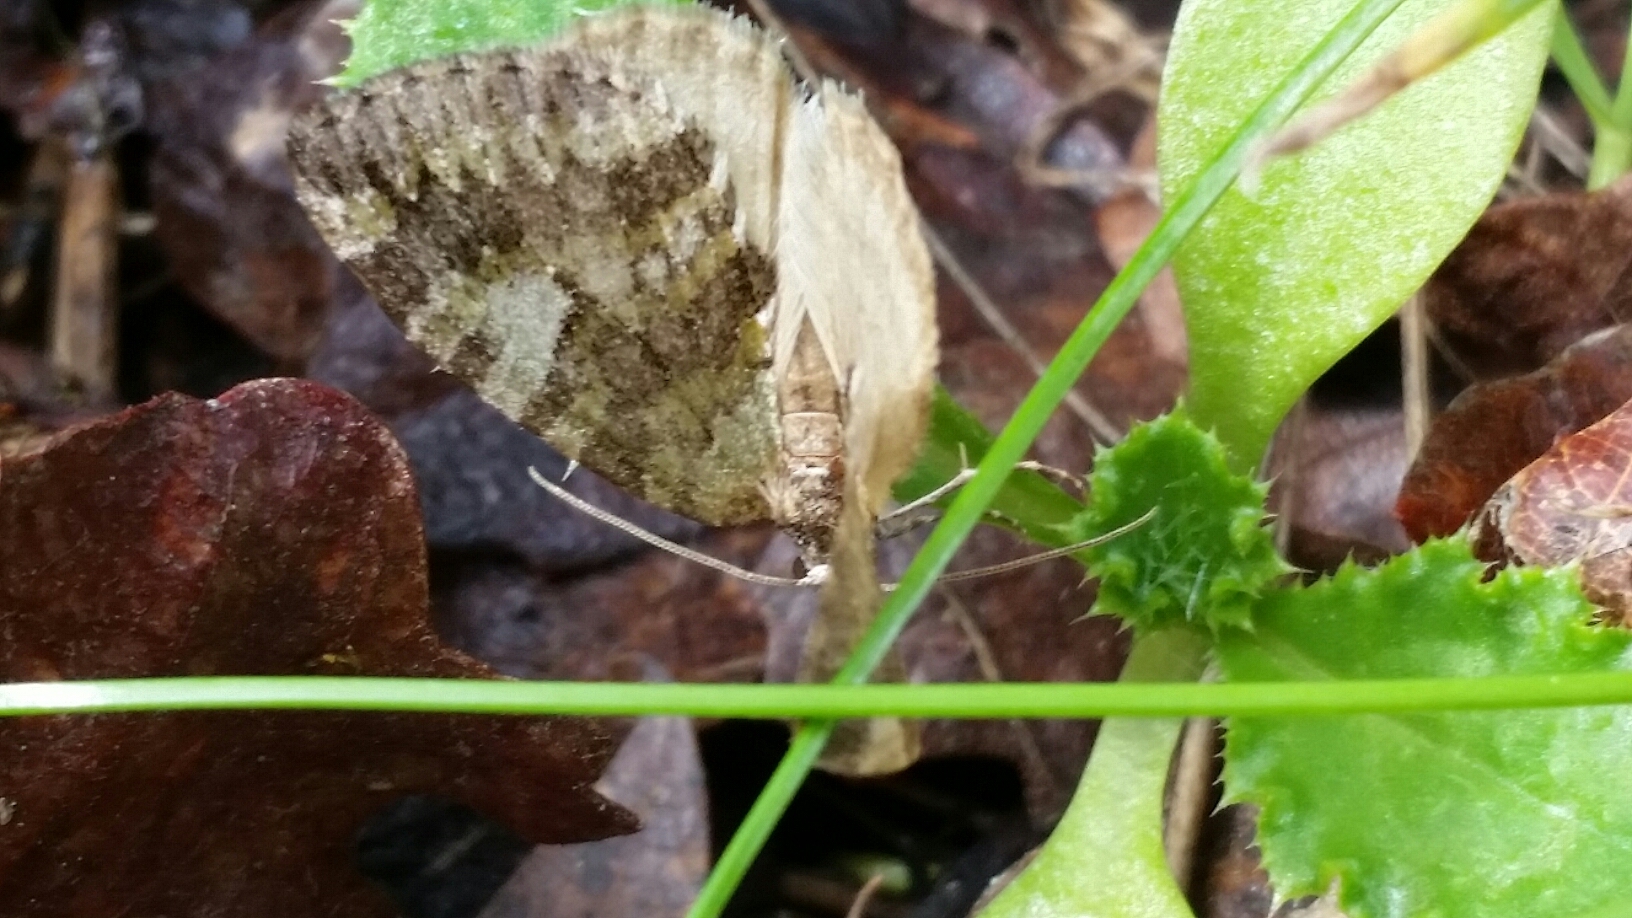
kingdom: Animalia
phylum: Arthropoda
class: Insecta
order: Lepidoptera
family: Geometridae
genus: Hydriomena
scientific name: Hydriomena nubilofasciata
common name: Oak winter highflier moth
